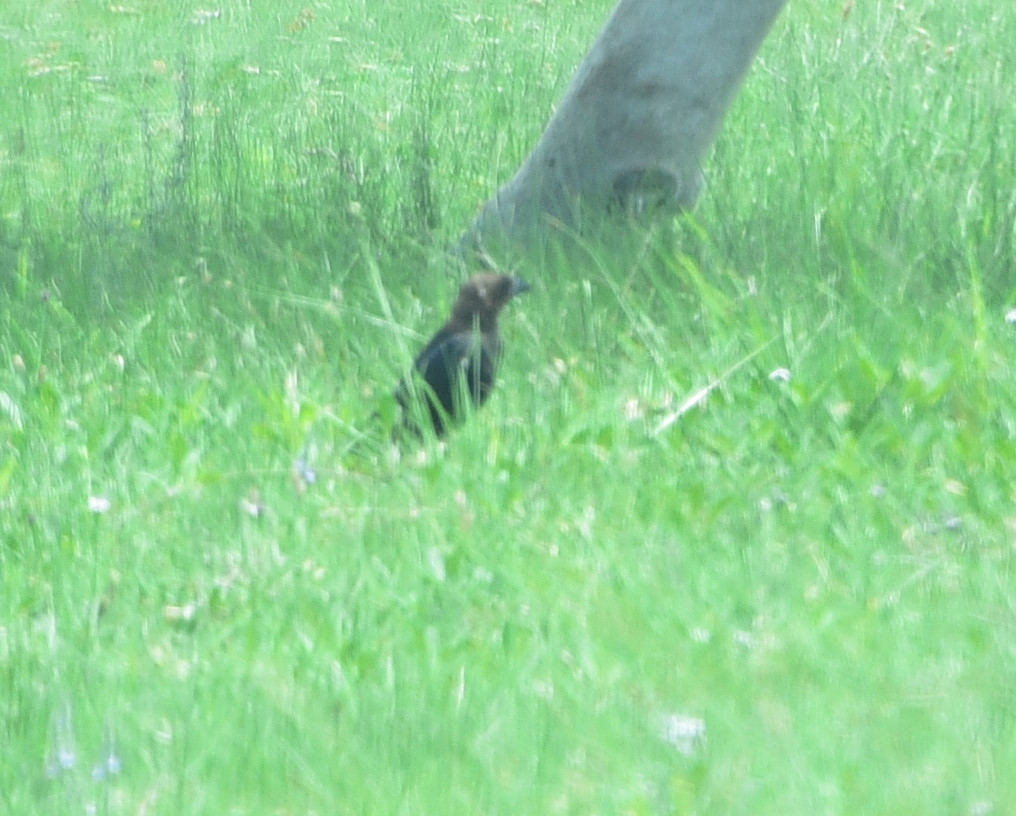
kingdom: Animalia
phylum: Chordata
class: Aves
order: Passeriformes
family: Icteridae
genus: Molothrus
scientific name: Molothrus ater
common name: Brown-headed cowbird
